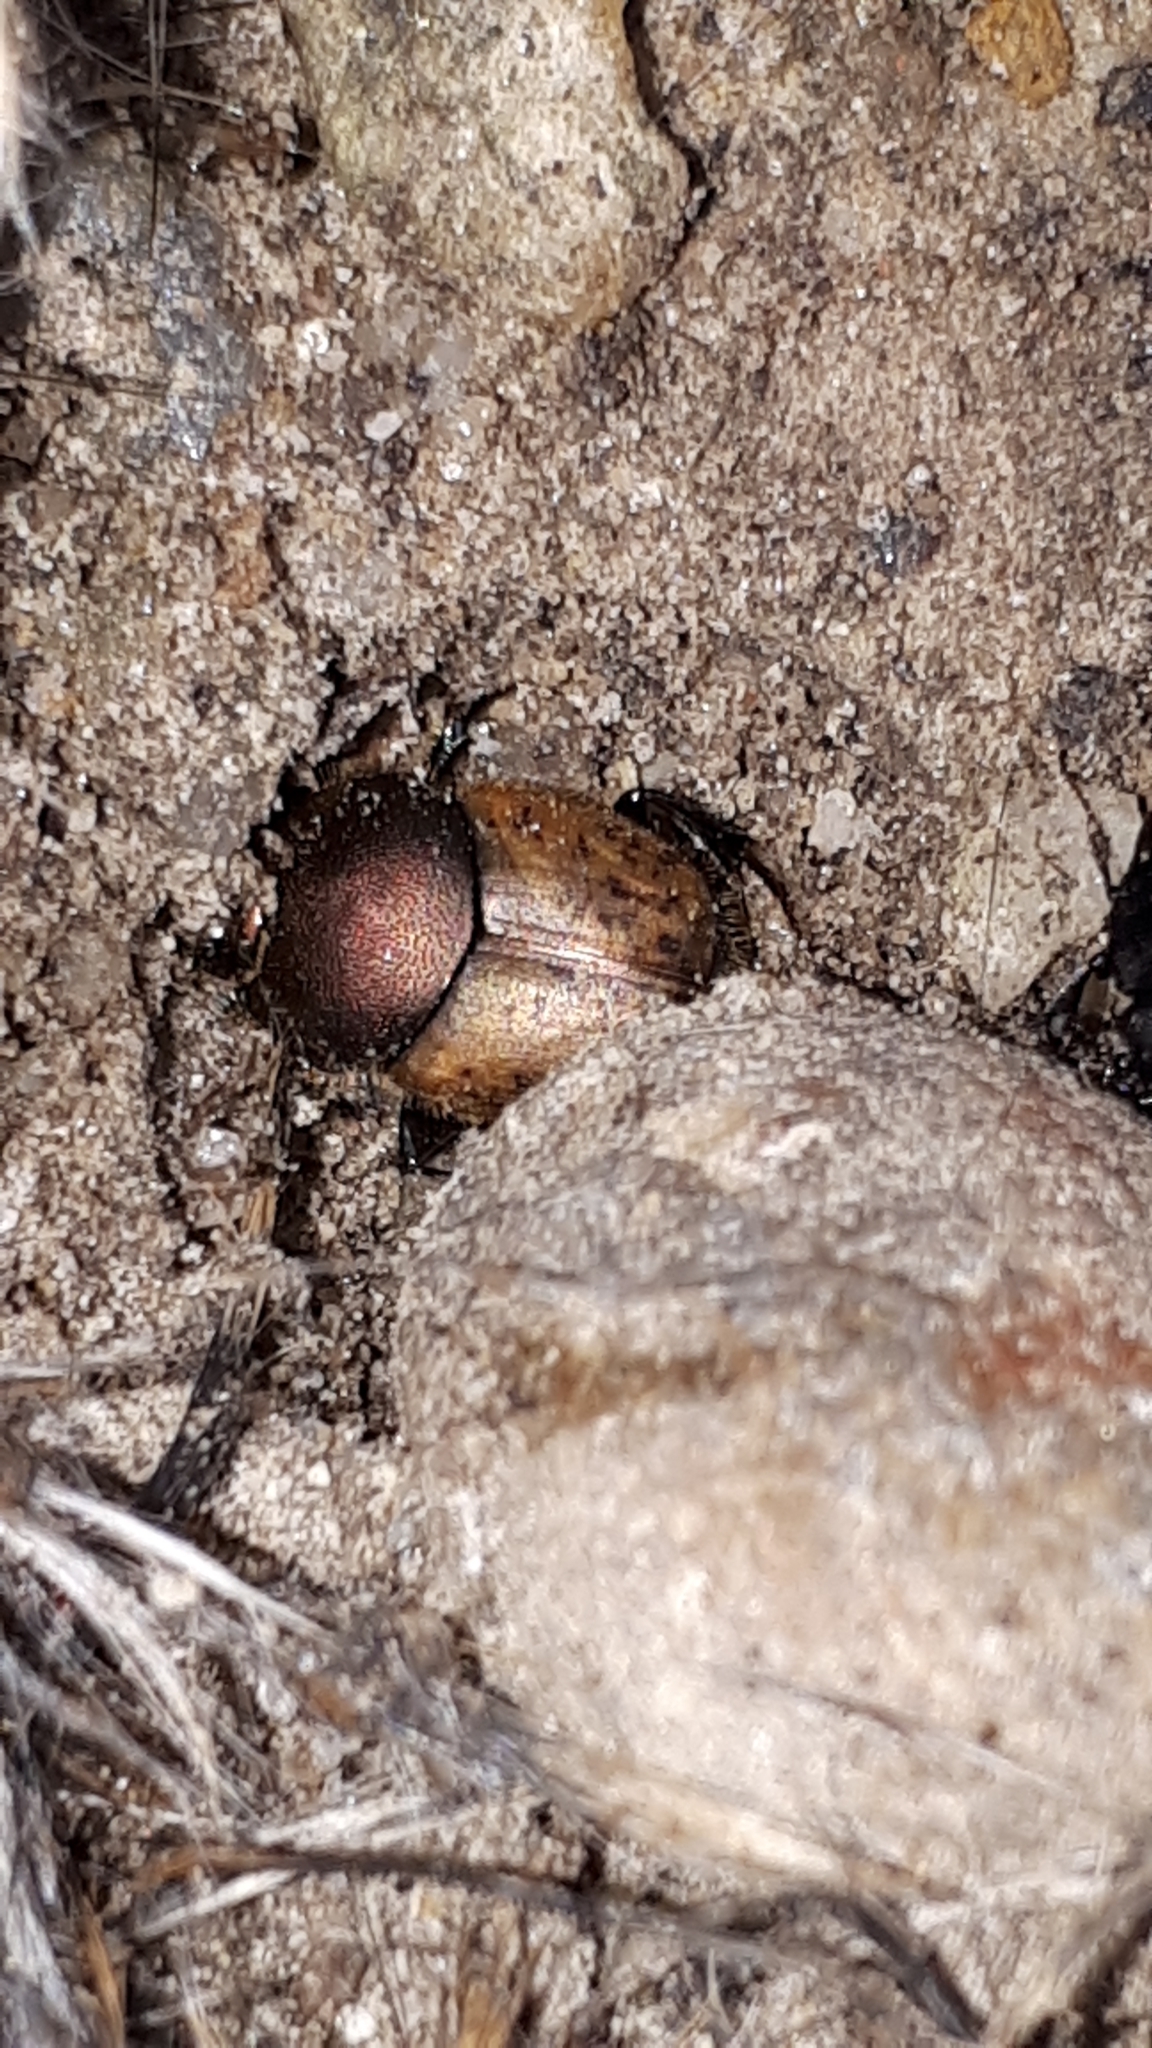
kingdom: Animalia
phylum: Arthropoda
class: Insecta
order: Coleoptera
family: Scarabaeidae
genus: Onthophagus
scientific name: Onthophagus coenobita
